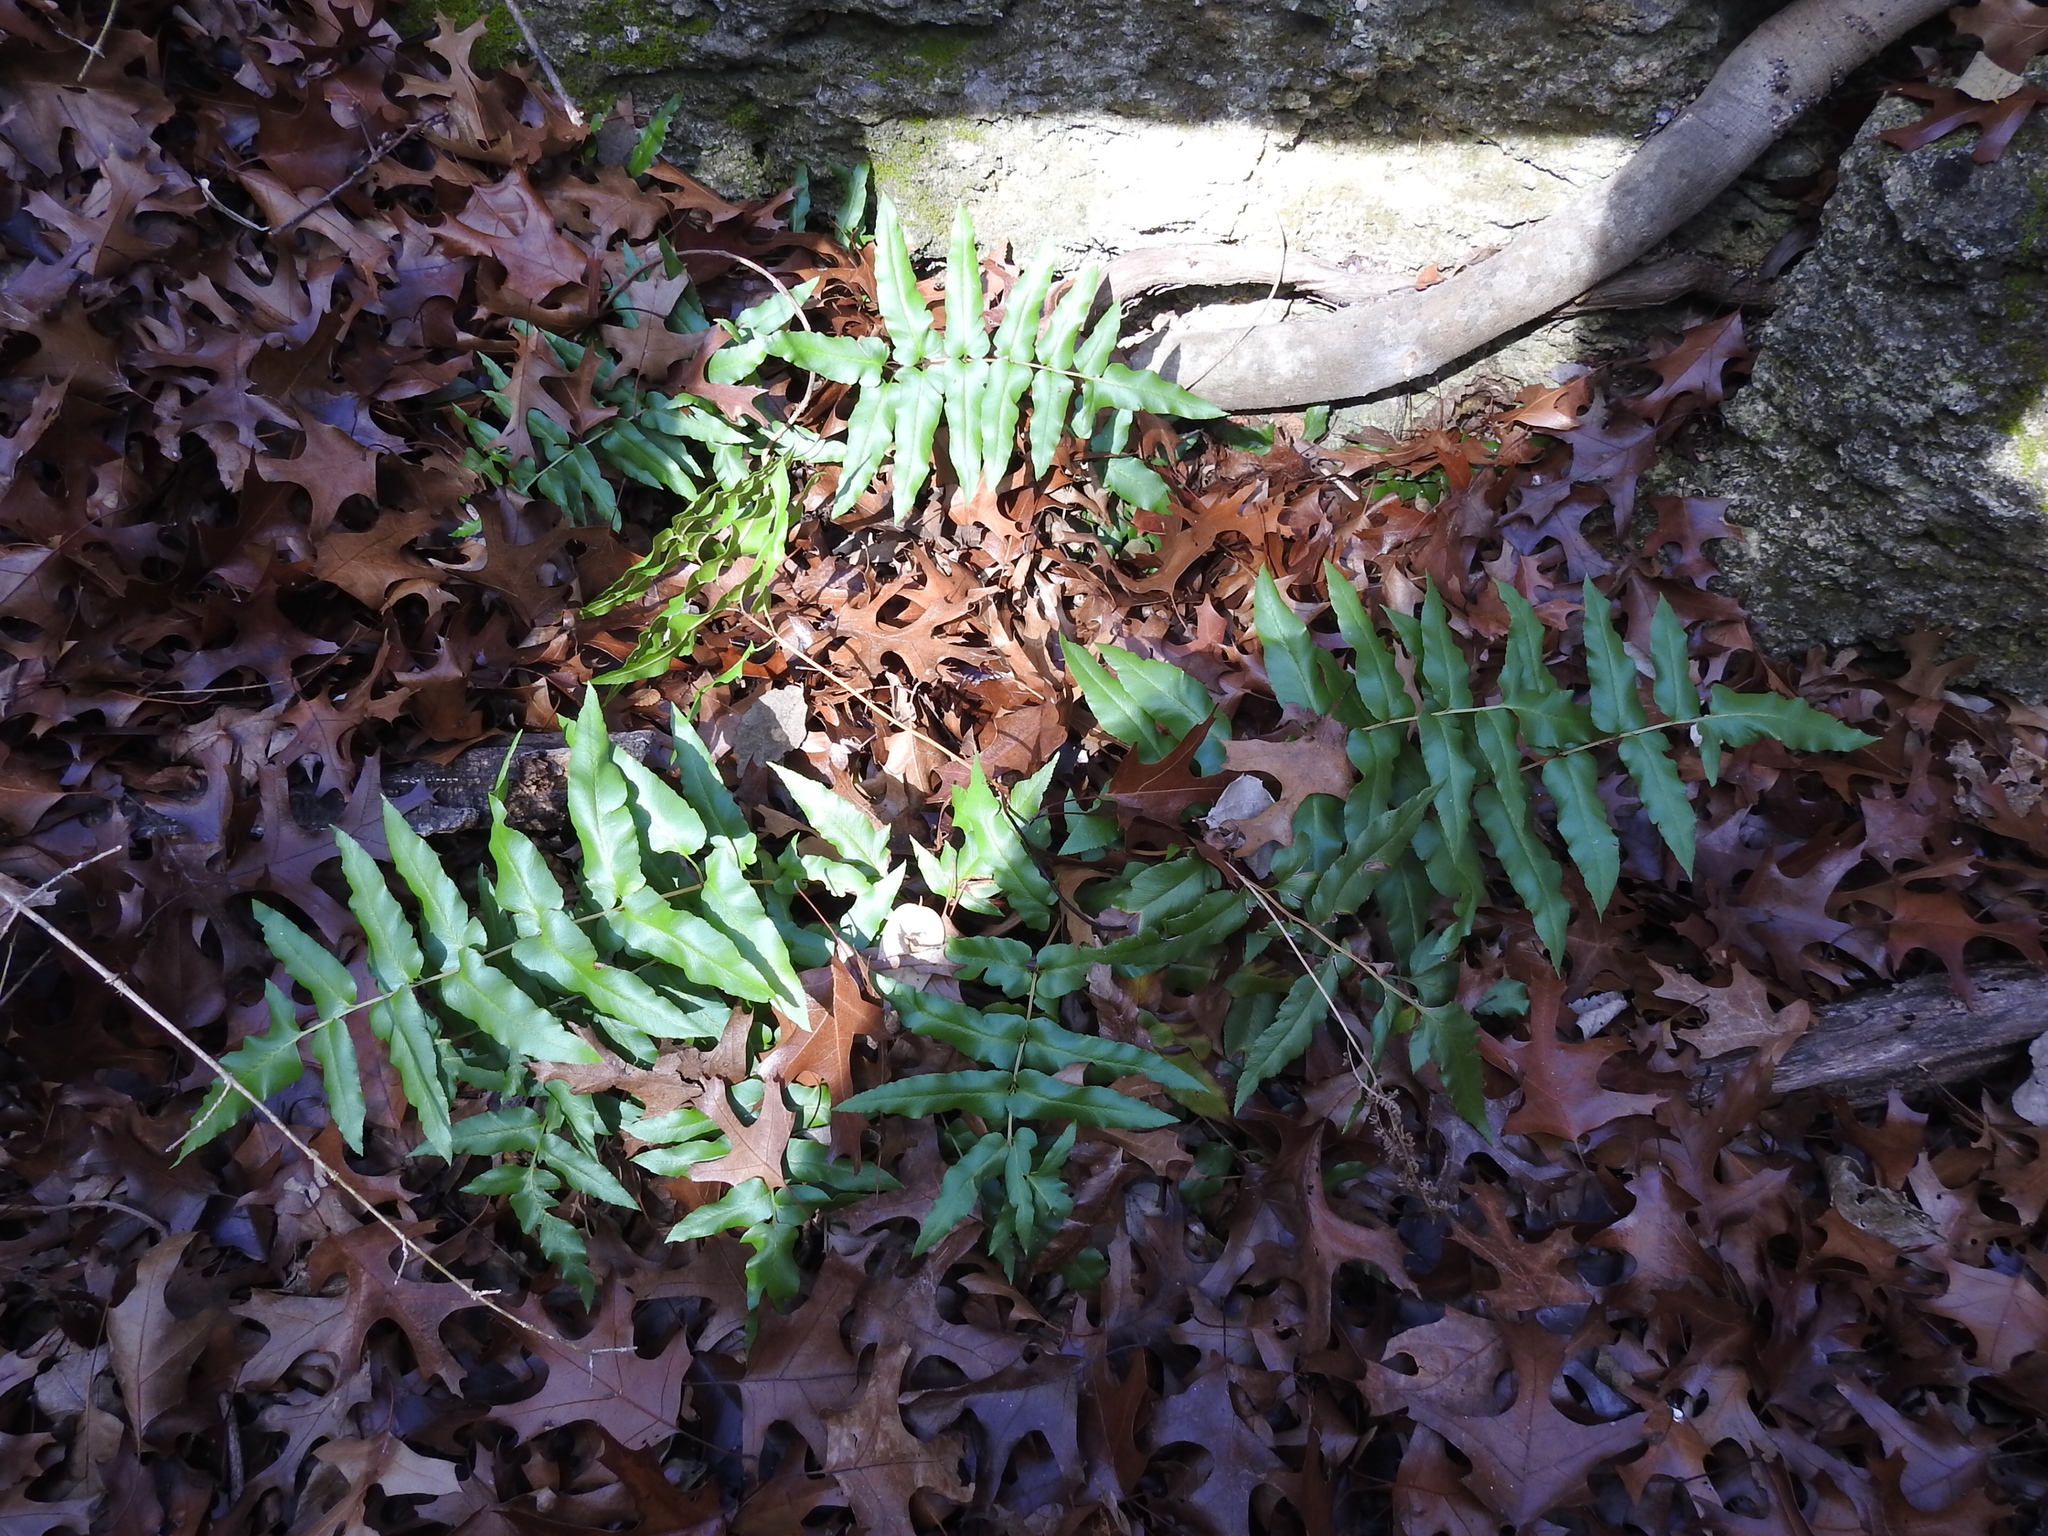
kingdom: Plantae
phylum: Tracheophyta
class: Polypodiopsida
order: Schizaeales
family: Anemiaceae
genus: Anemia
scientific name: Anemia mexicana
